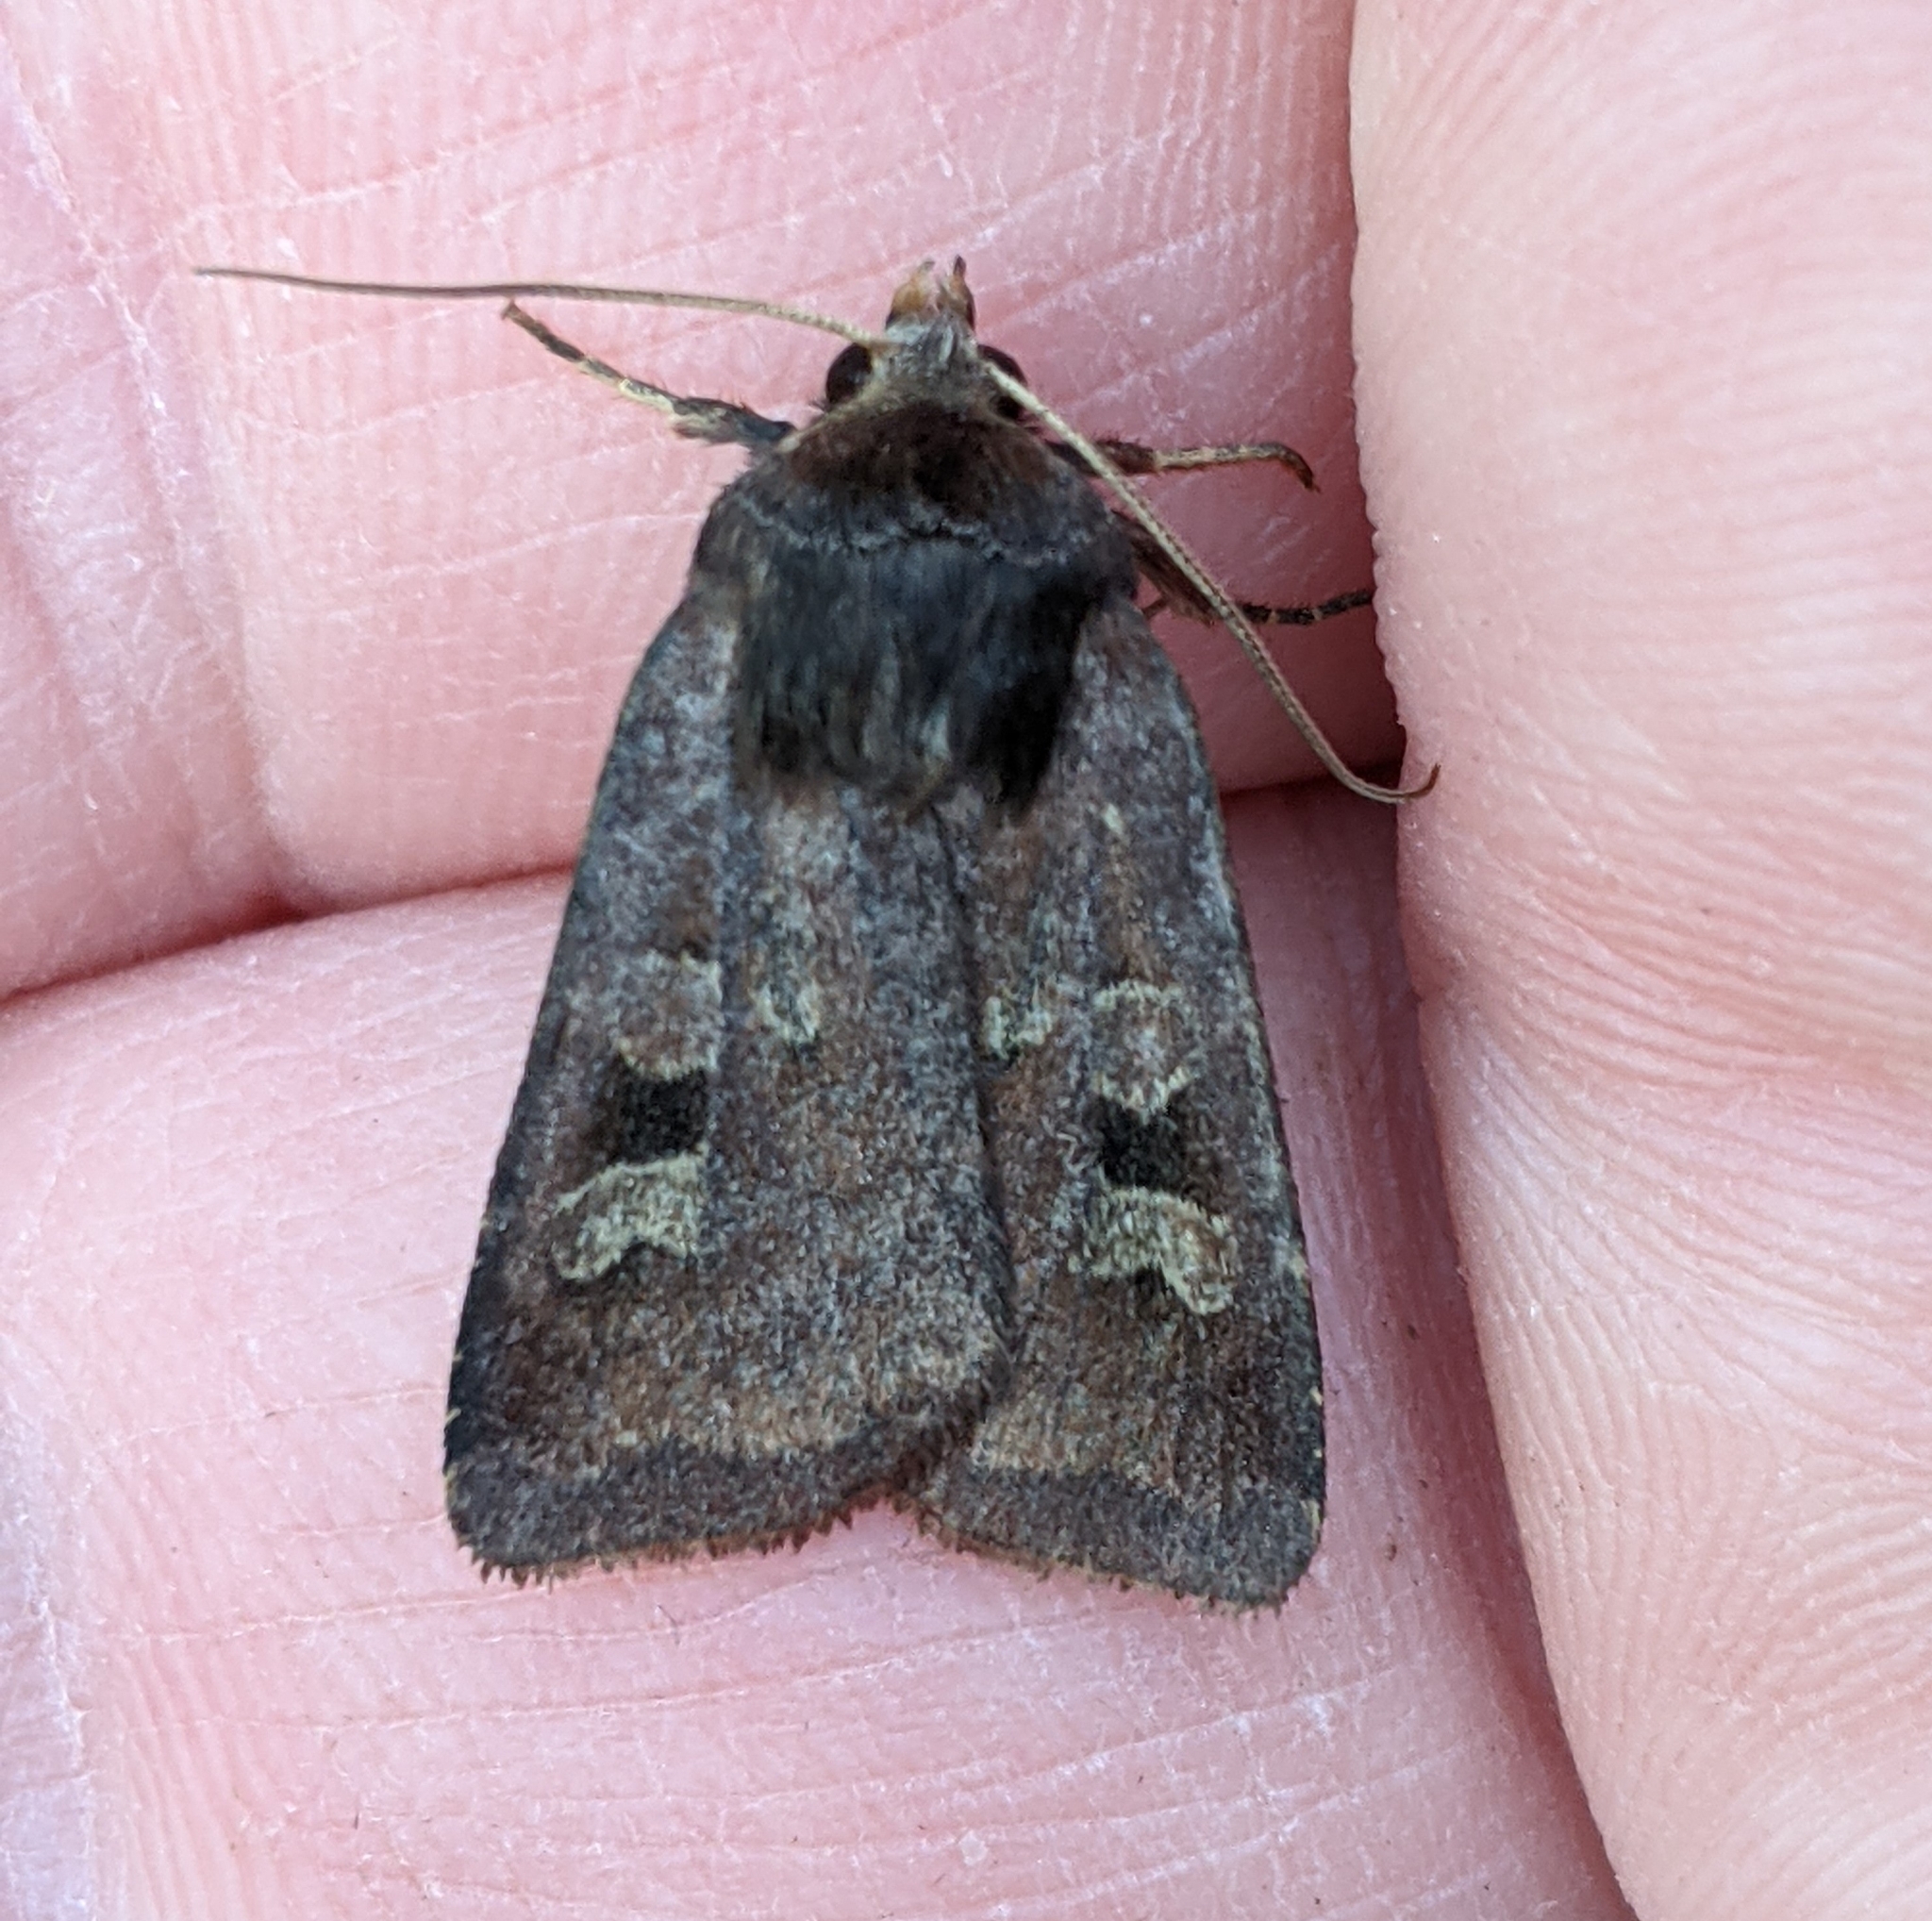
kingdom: Animalia
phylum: Arthropoda
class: Insecta
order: Lepidoptera
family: Noctuidae
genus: Diarsia
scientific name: Diarsia rosaria
